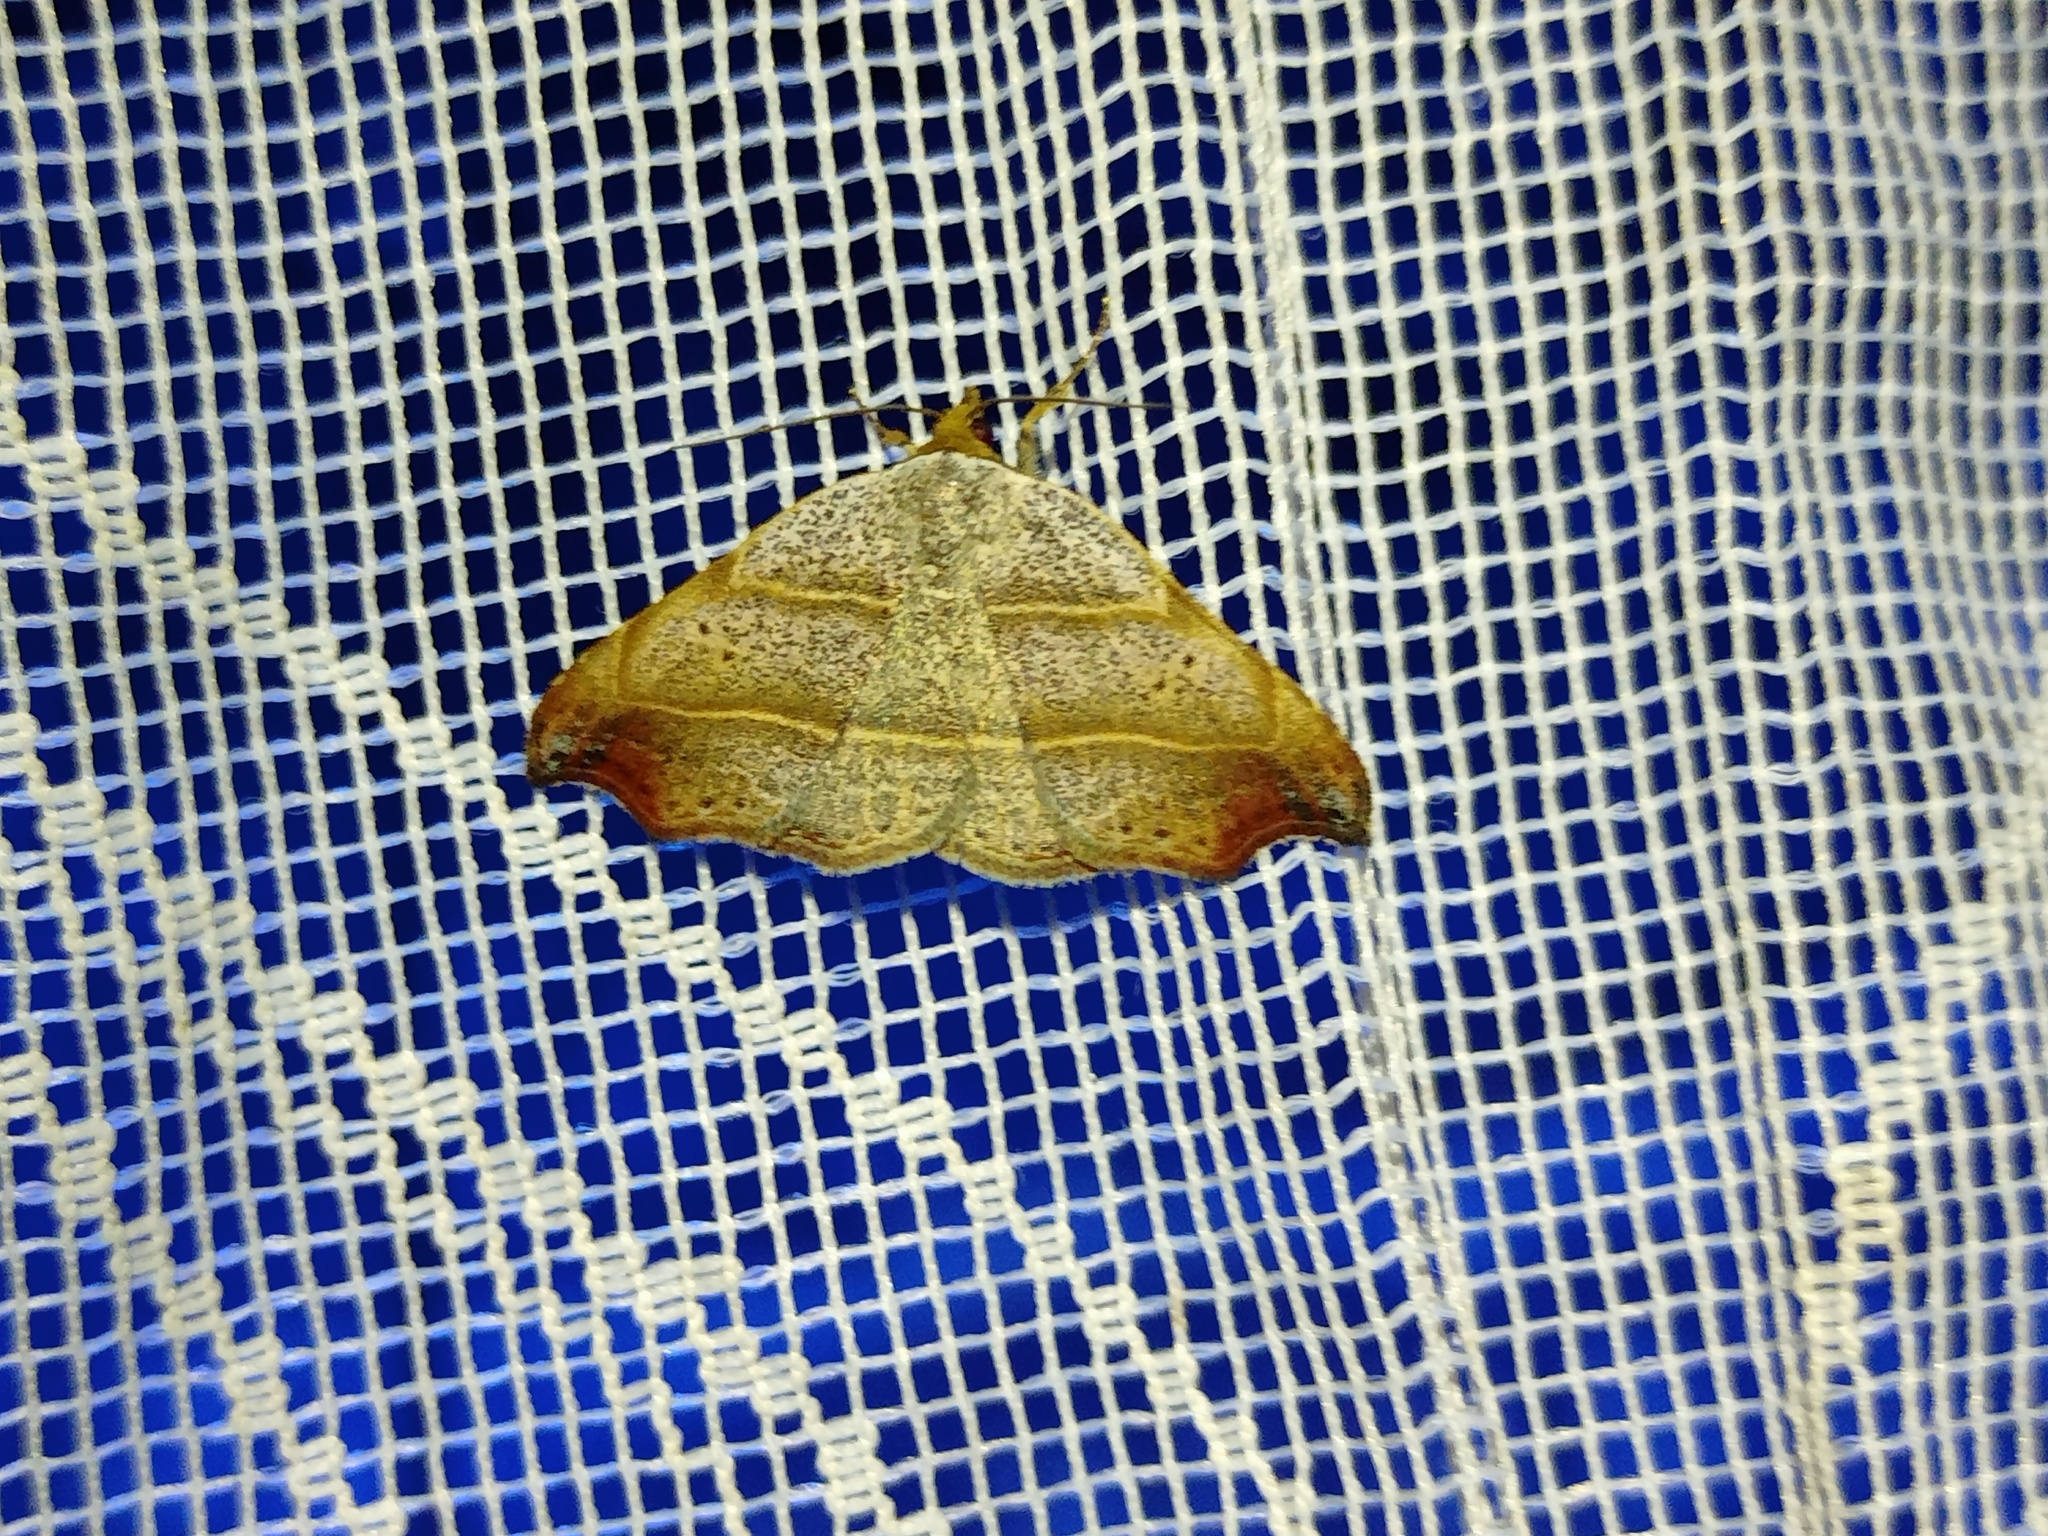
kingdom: Animalia
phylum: Arthropoda
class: Insecta
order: Lepidoptera
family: Erebidae
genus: Laspeyria
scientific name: Laspeyria flexula
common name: Beautiful hook-tip
